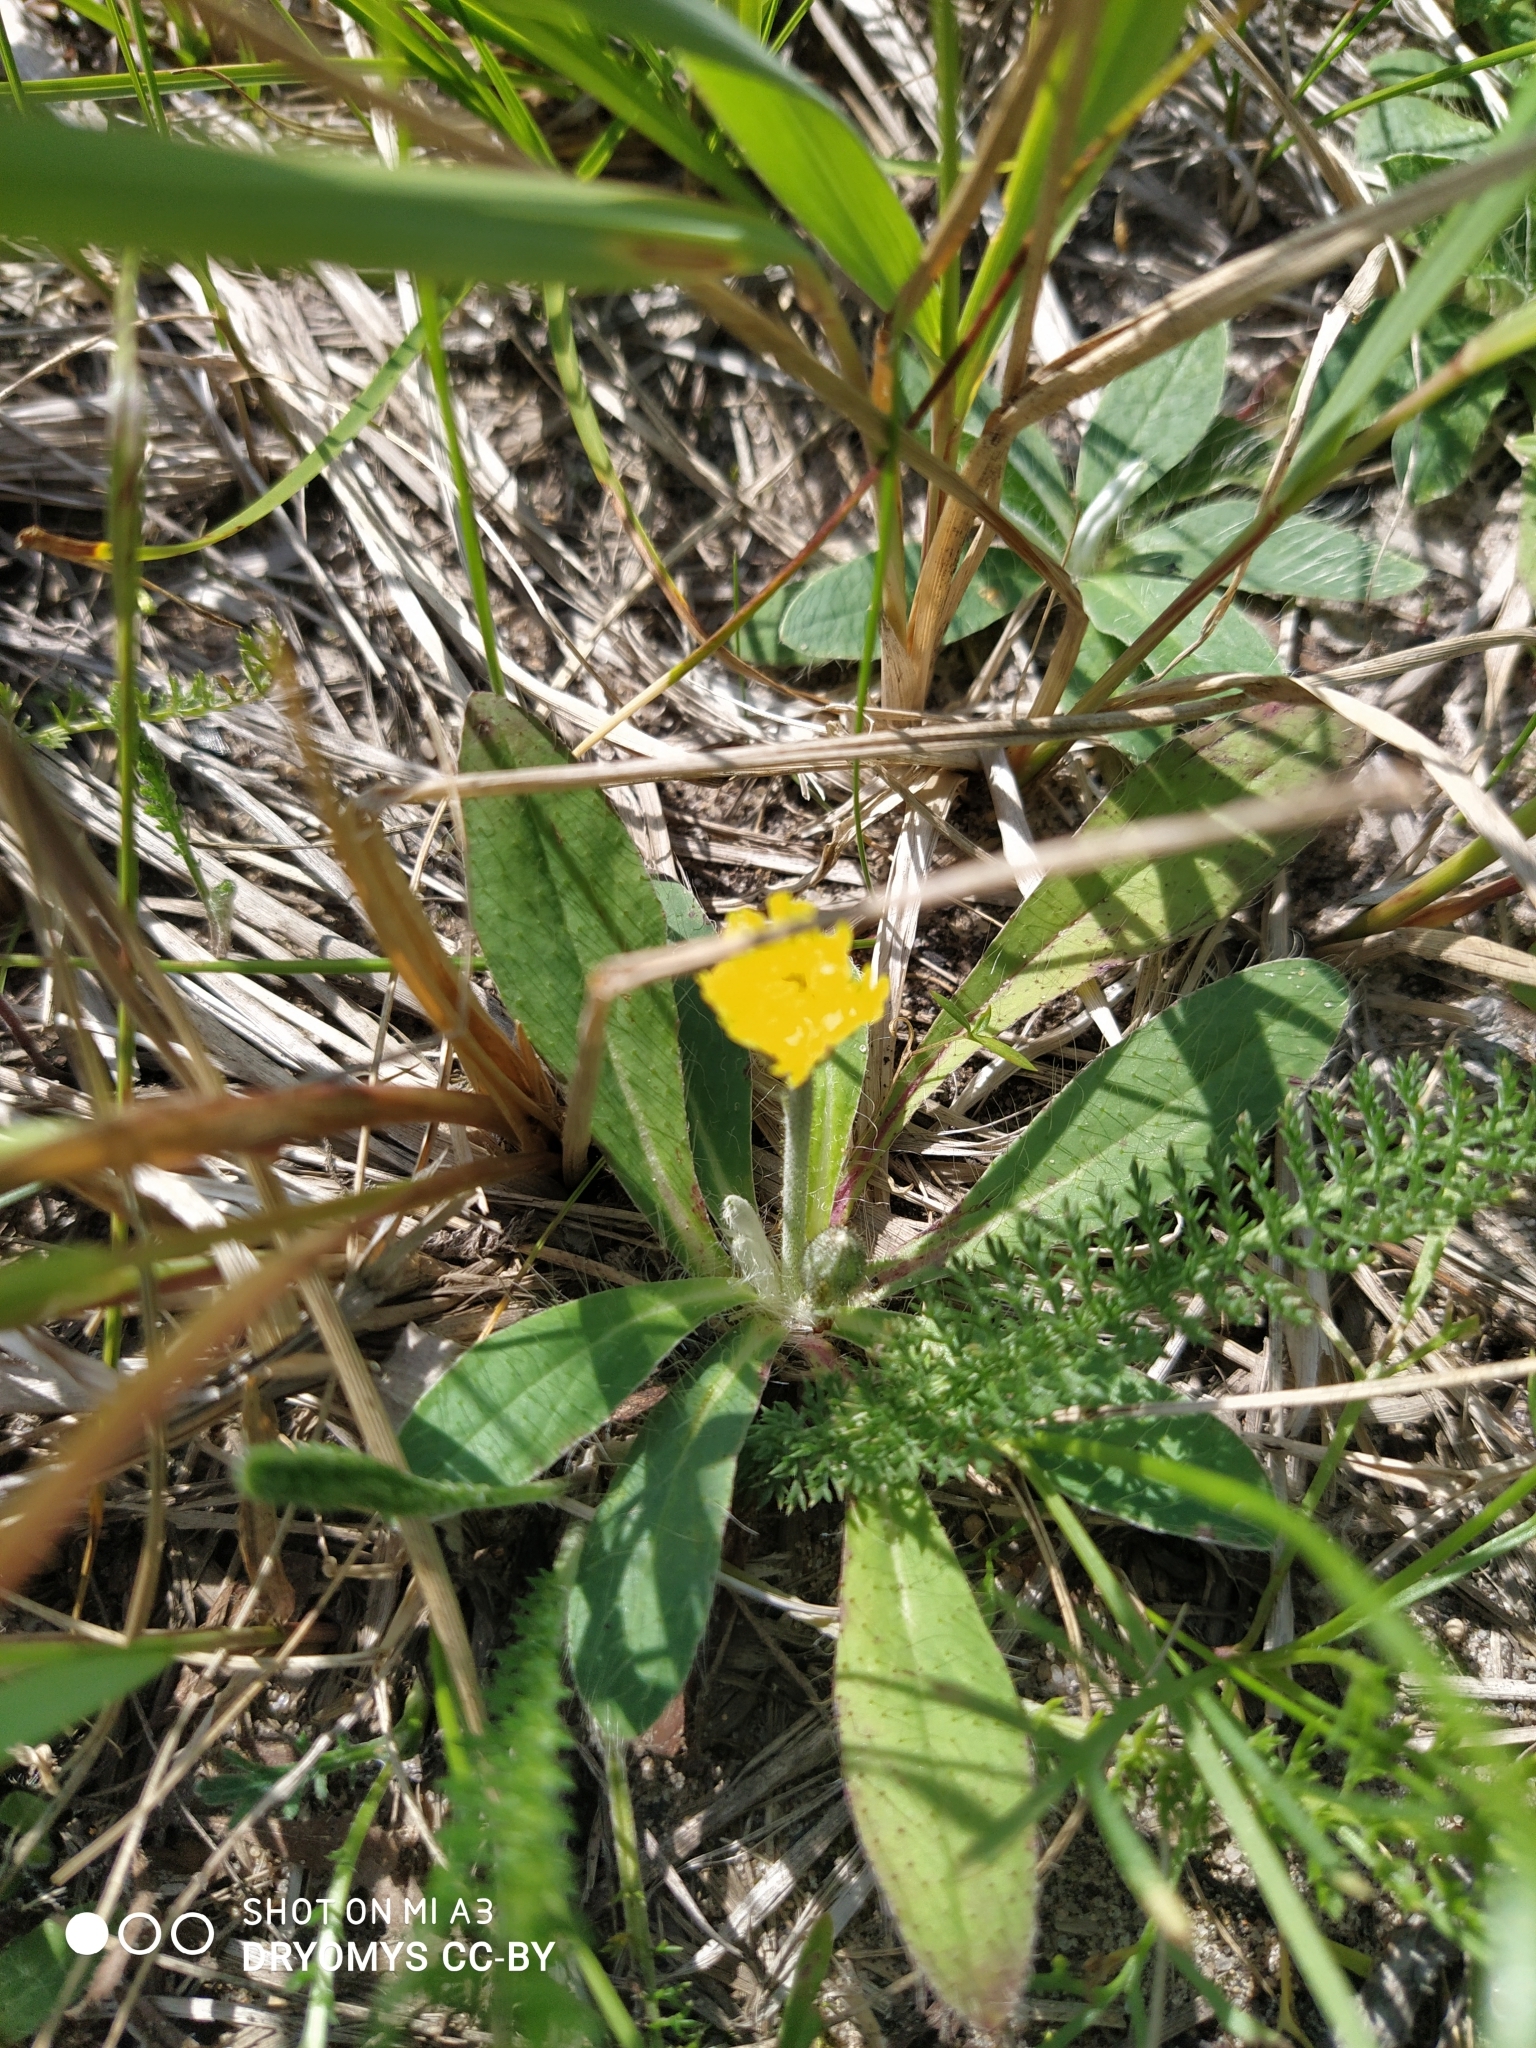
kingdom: Plantae
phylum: Tracheophyta
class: Magnoliopsida
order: Asterales
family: Asteraceae
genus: Pilosella
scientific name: Pilosella officinarum
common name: Mouse-ear hawkweed
